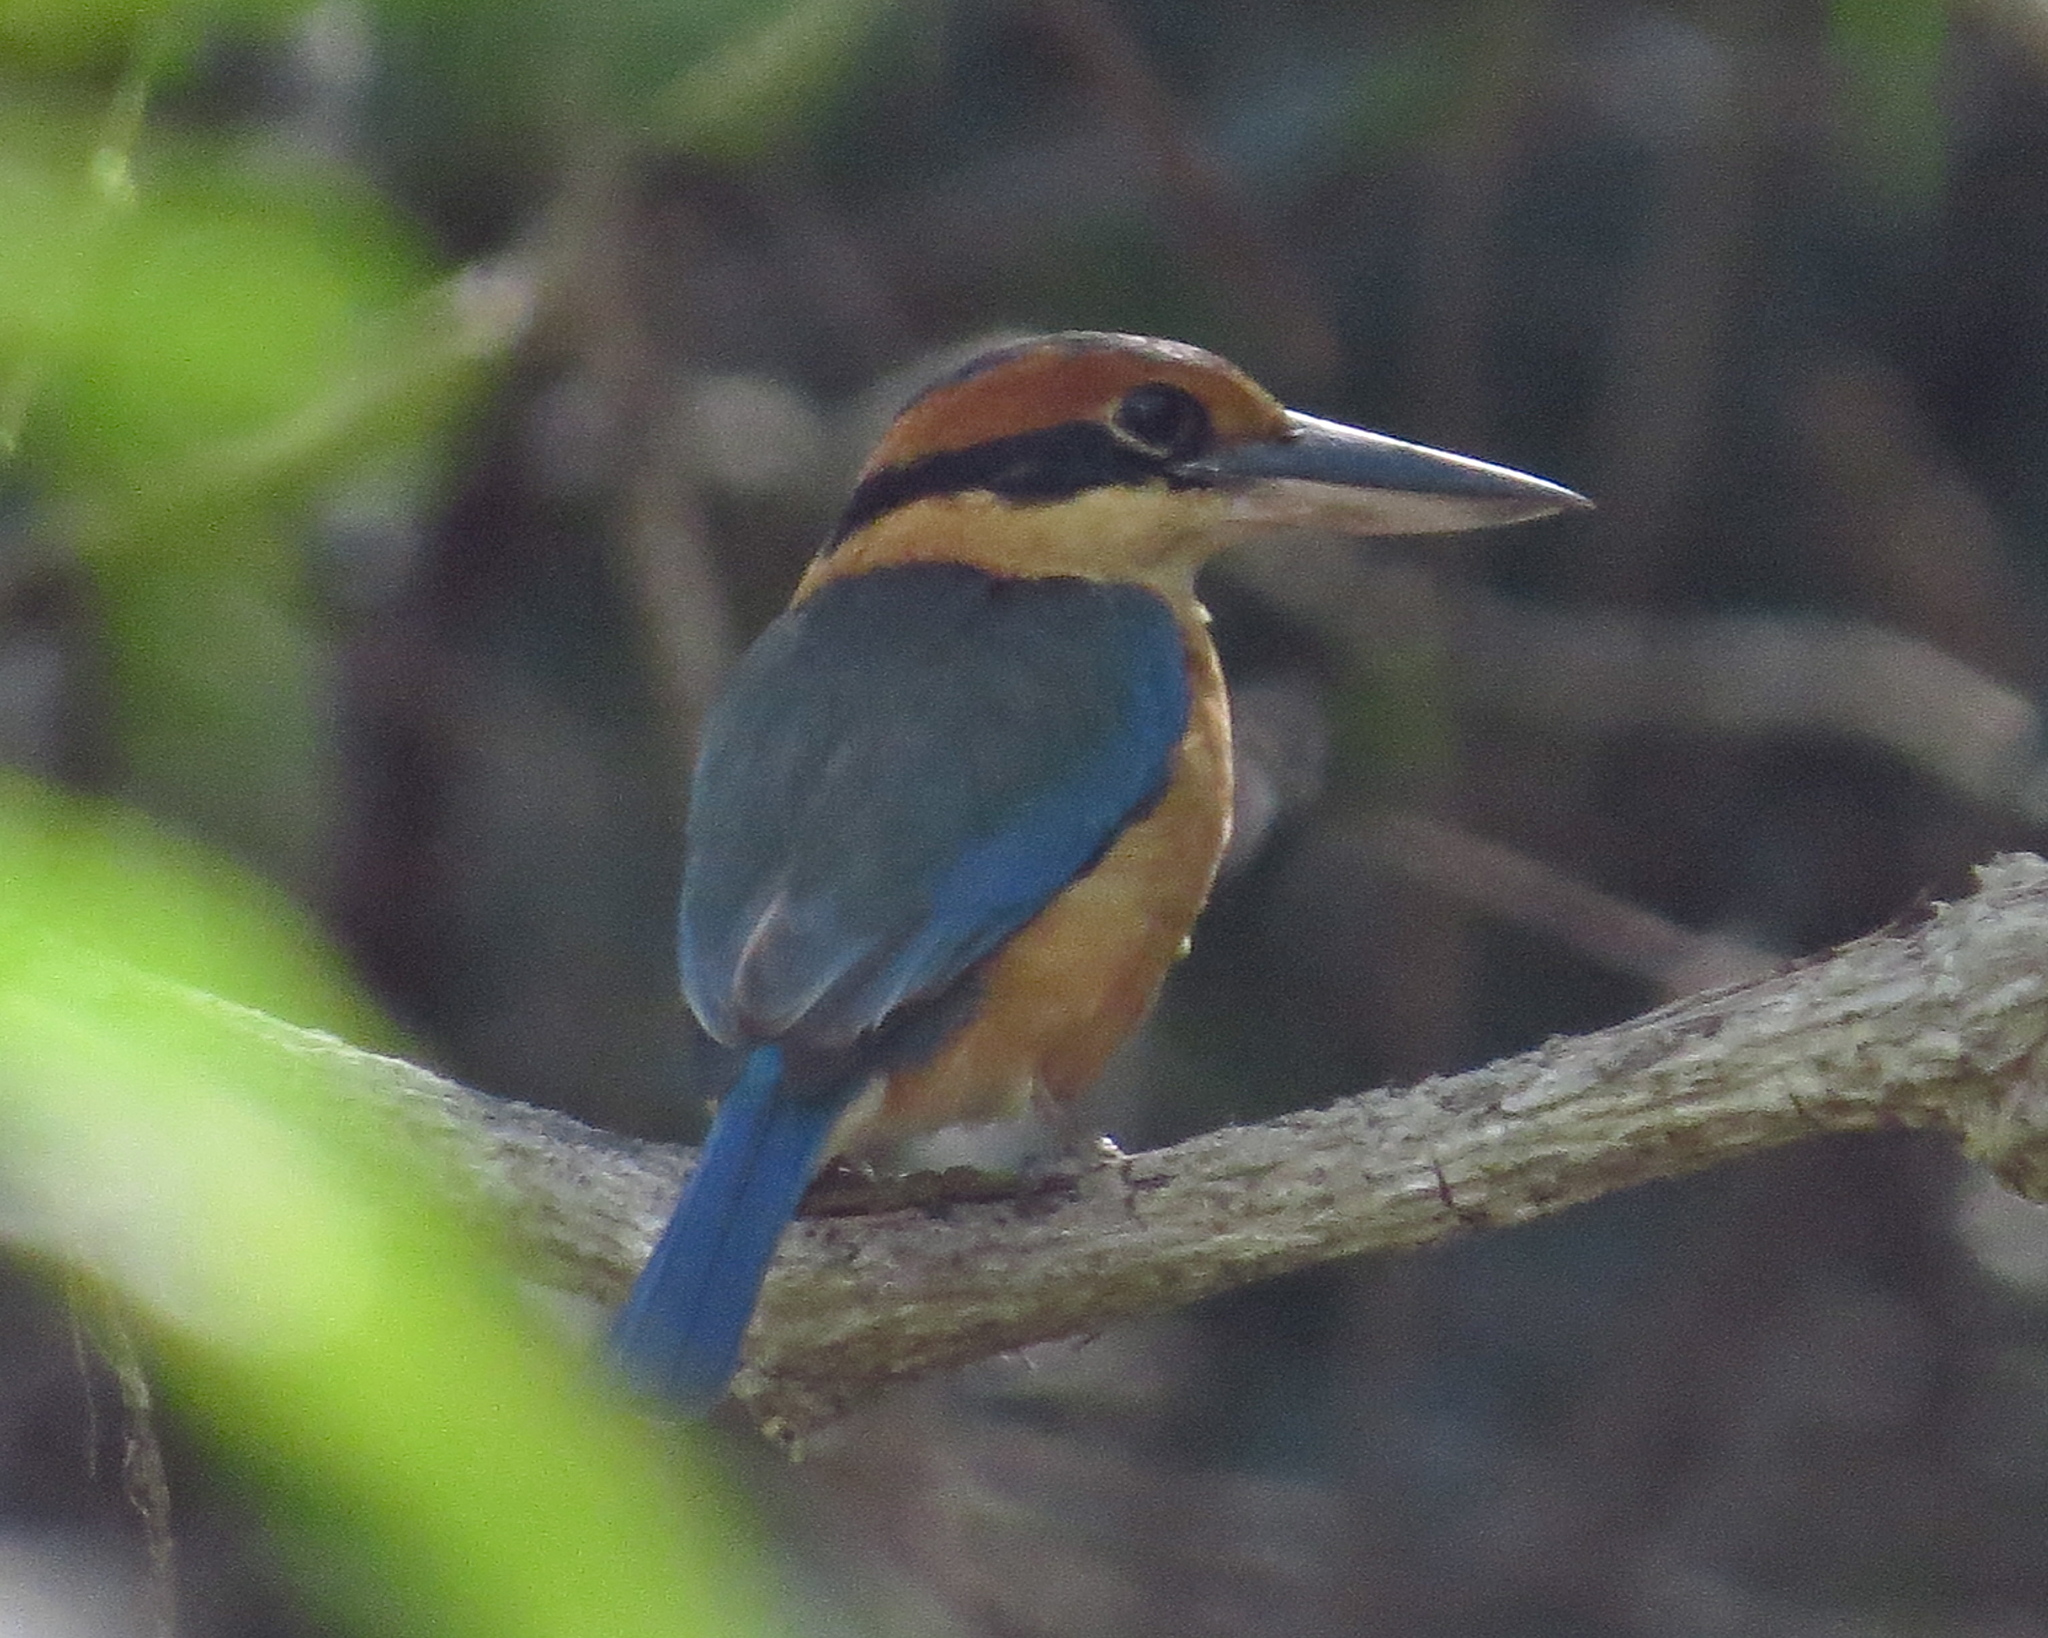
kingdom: Animalia
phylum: Chordata
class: Aves
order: Coraciiformes
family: Alcedinidae
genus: Todiramphus
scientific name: Todiramphus australasia
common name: Cinnamon-banded kingfisher
